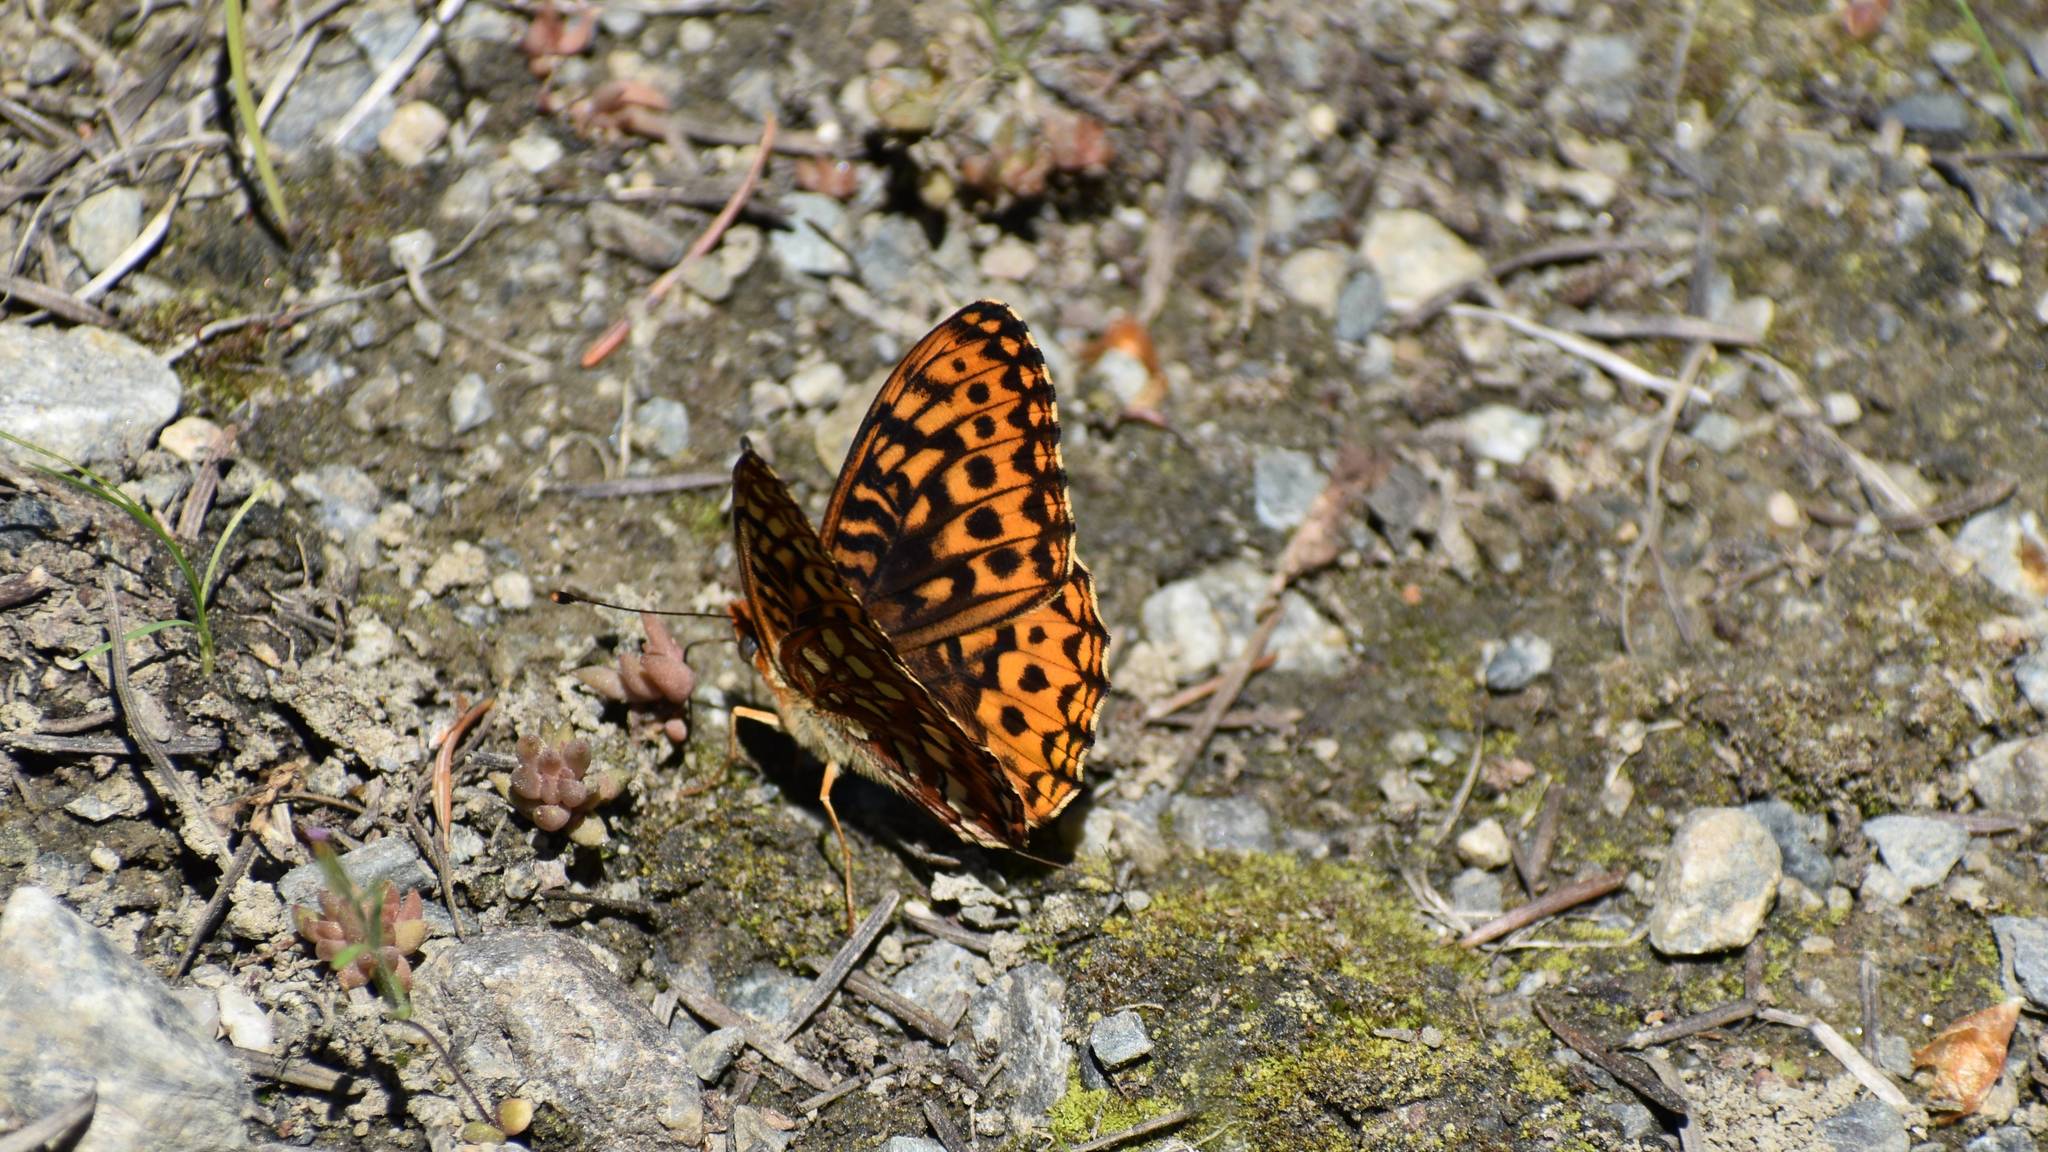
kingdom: Animalia
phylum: Arthropoda
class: Insecta
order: Lepidoptera
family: Nymphalidae
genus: Speyeria
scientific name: Speyeria hydaspe
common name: Hydaspe fritillary
